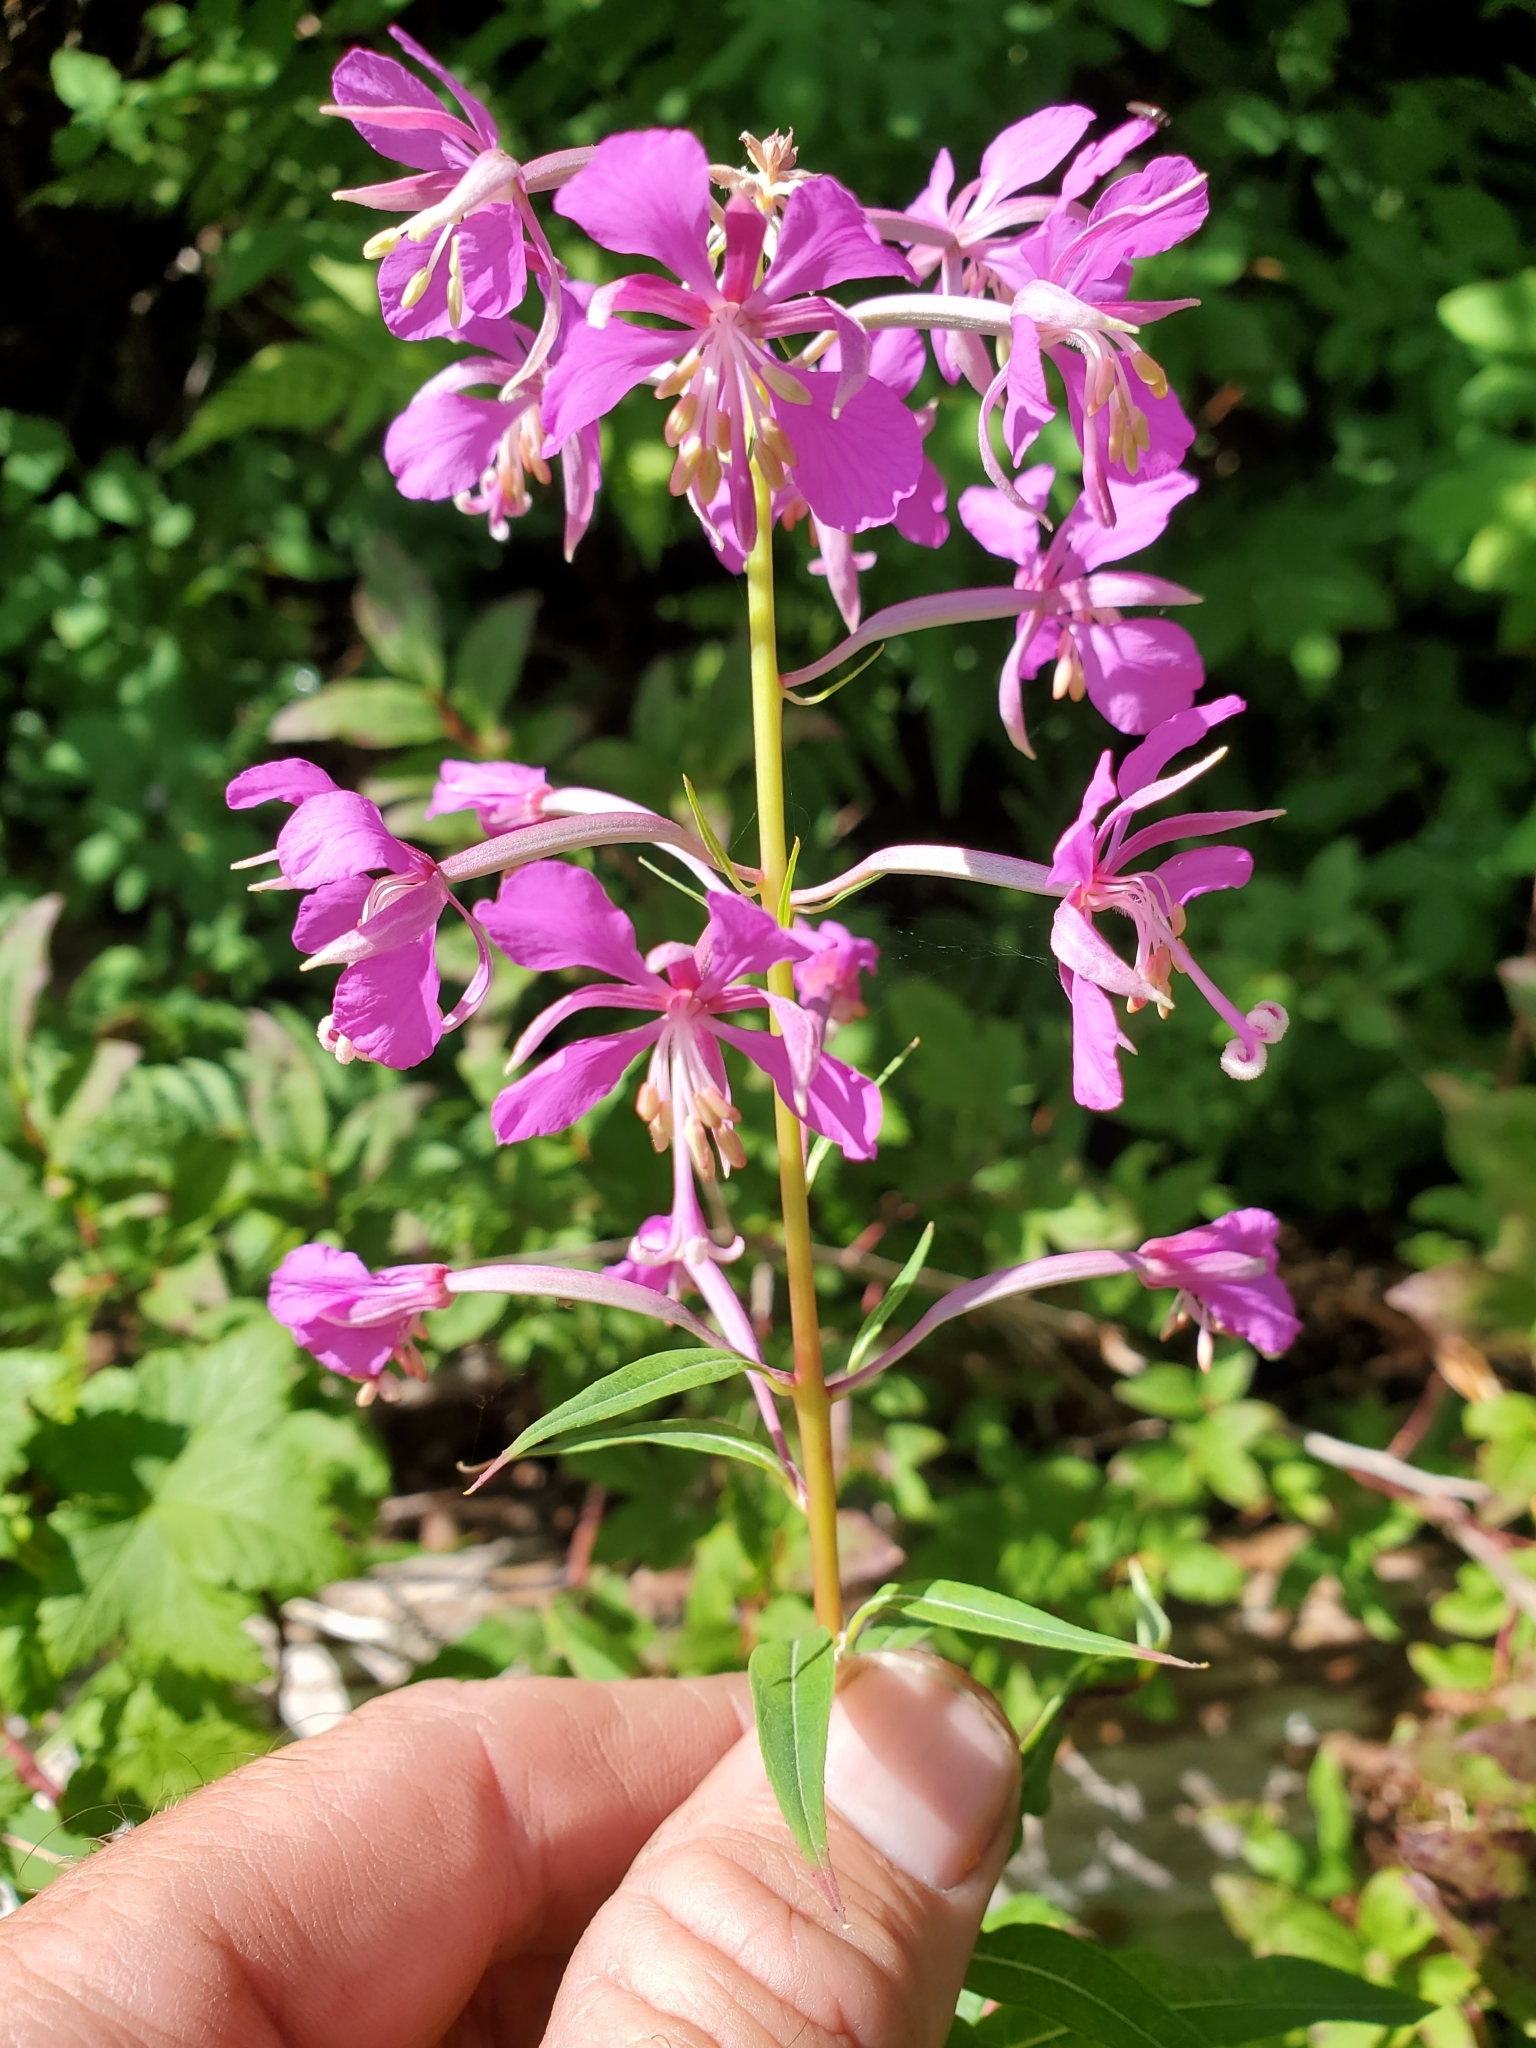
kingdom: Plantae
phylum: Tracheophyta
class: Magnoliopsida
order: Myrtales
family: Onagraceae
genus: Chamaenerion
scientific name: Chamaenerion angustifolium
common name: Fireweed
